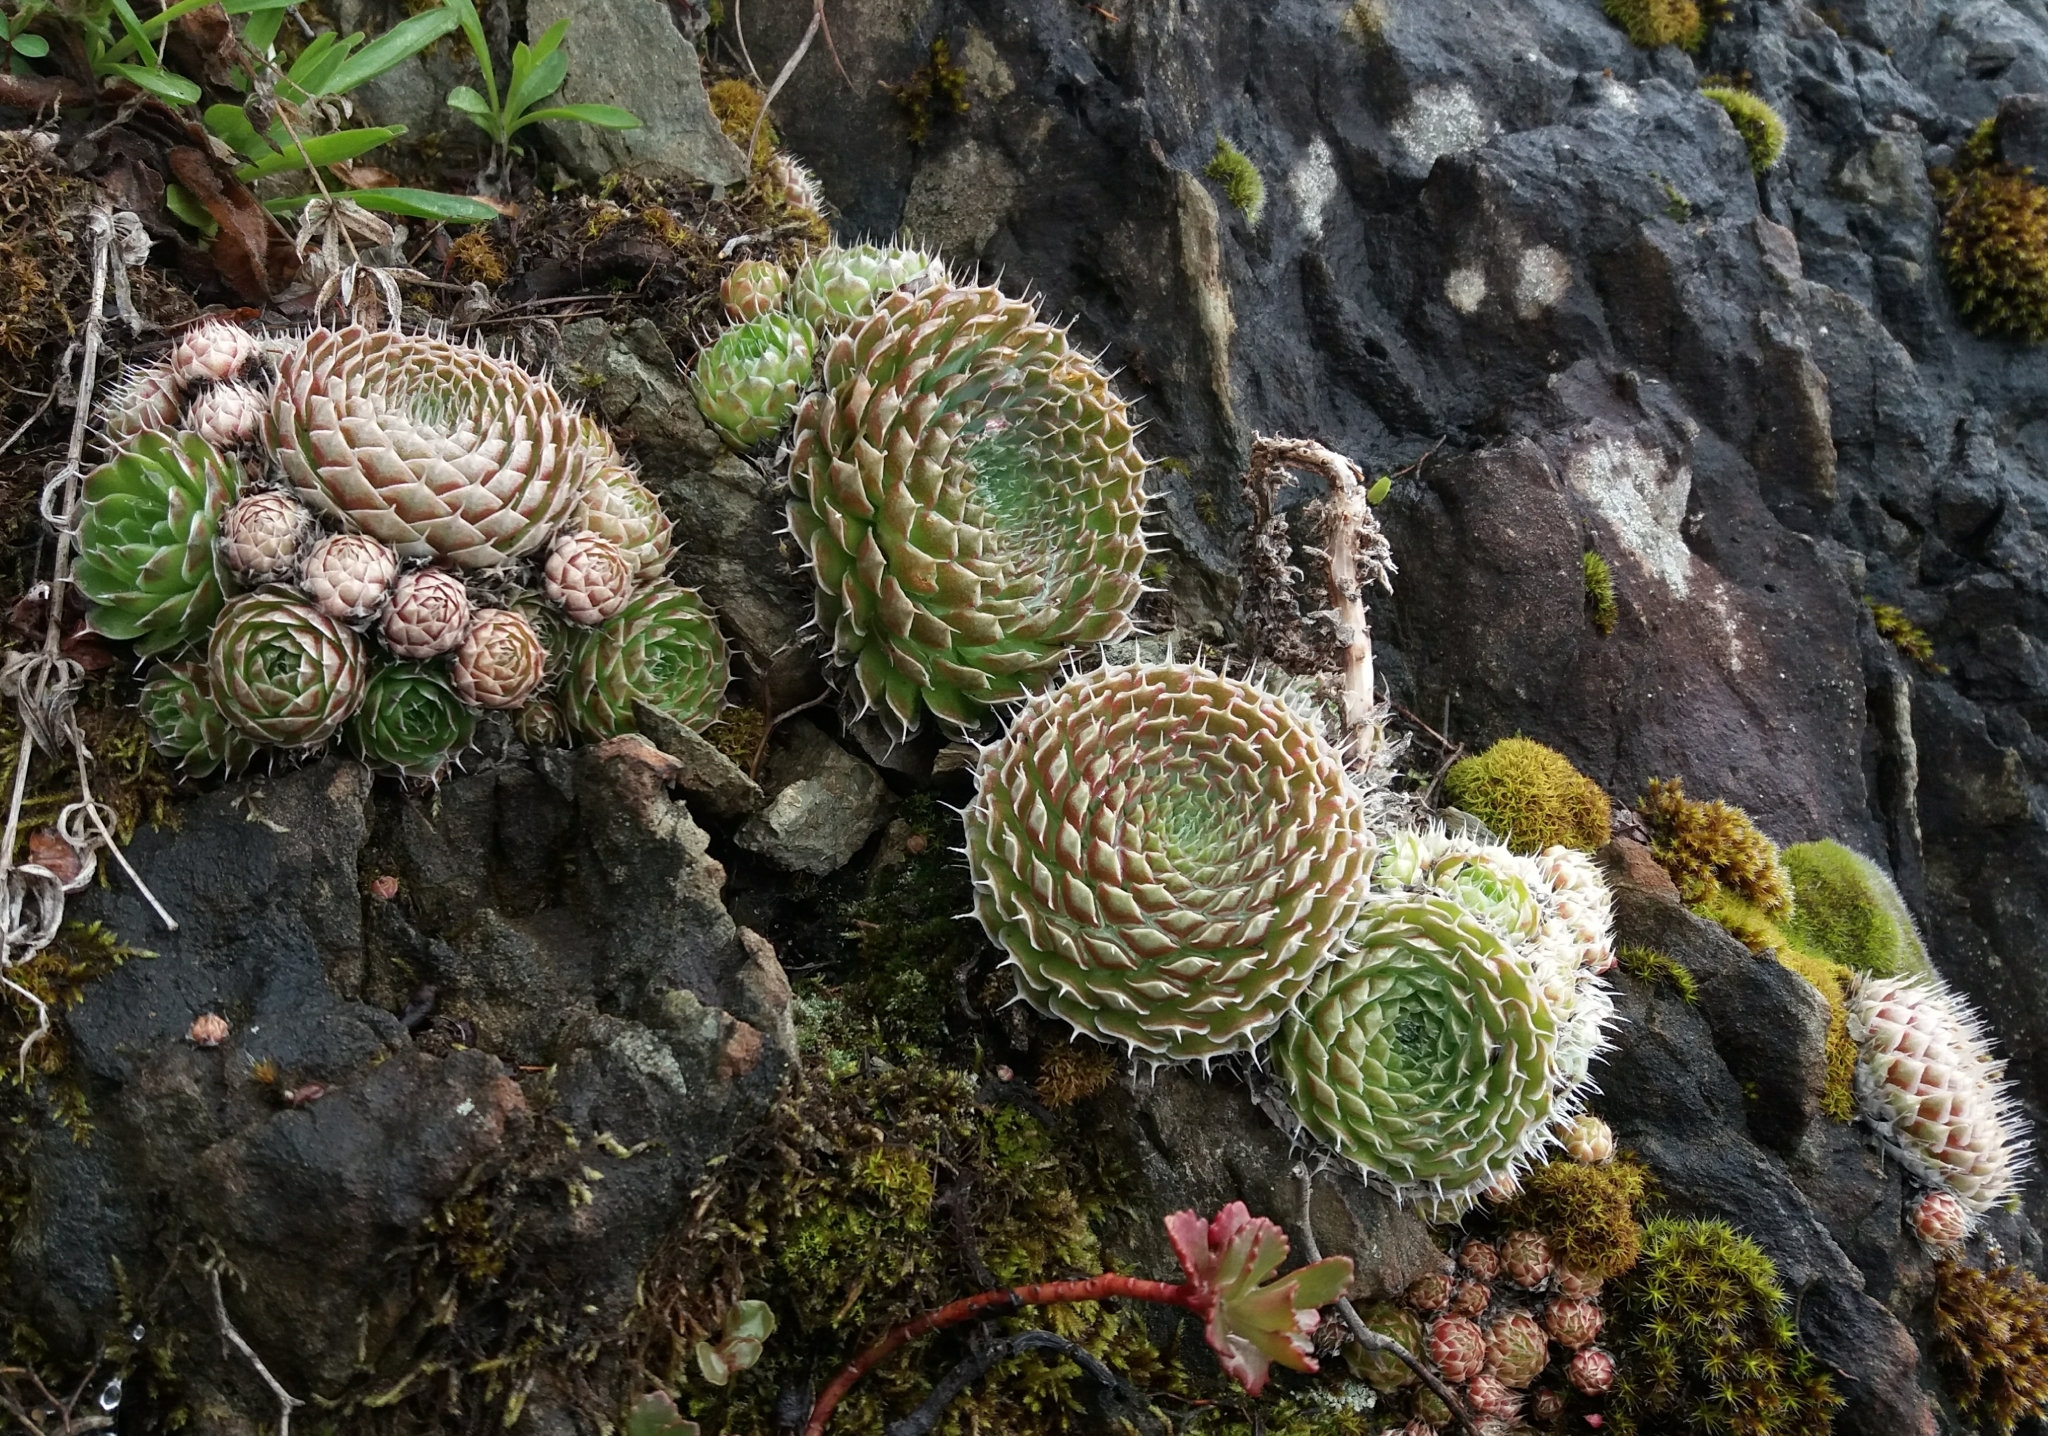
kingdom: Plantae
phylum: Tracheophyta
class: Magnoliopsida
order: Saxifragales
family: Crassulaceae
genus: Orostachys
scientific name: Orostachys spinosa
